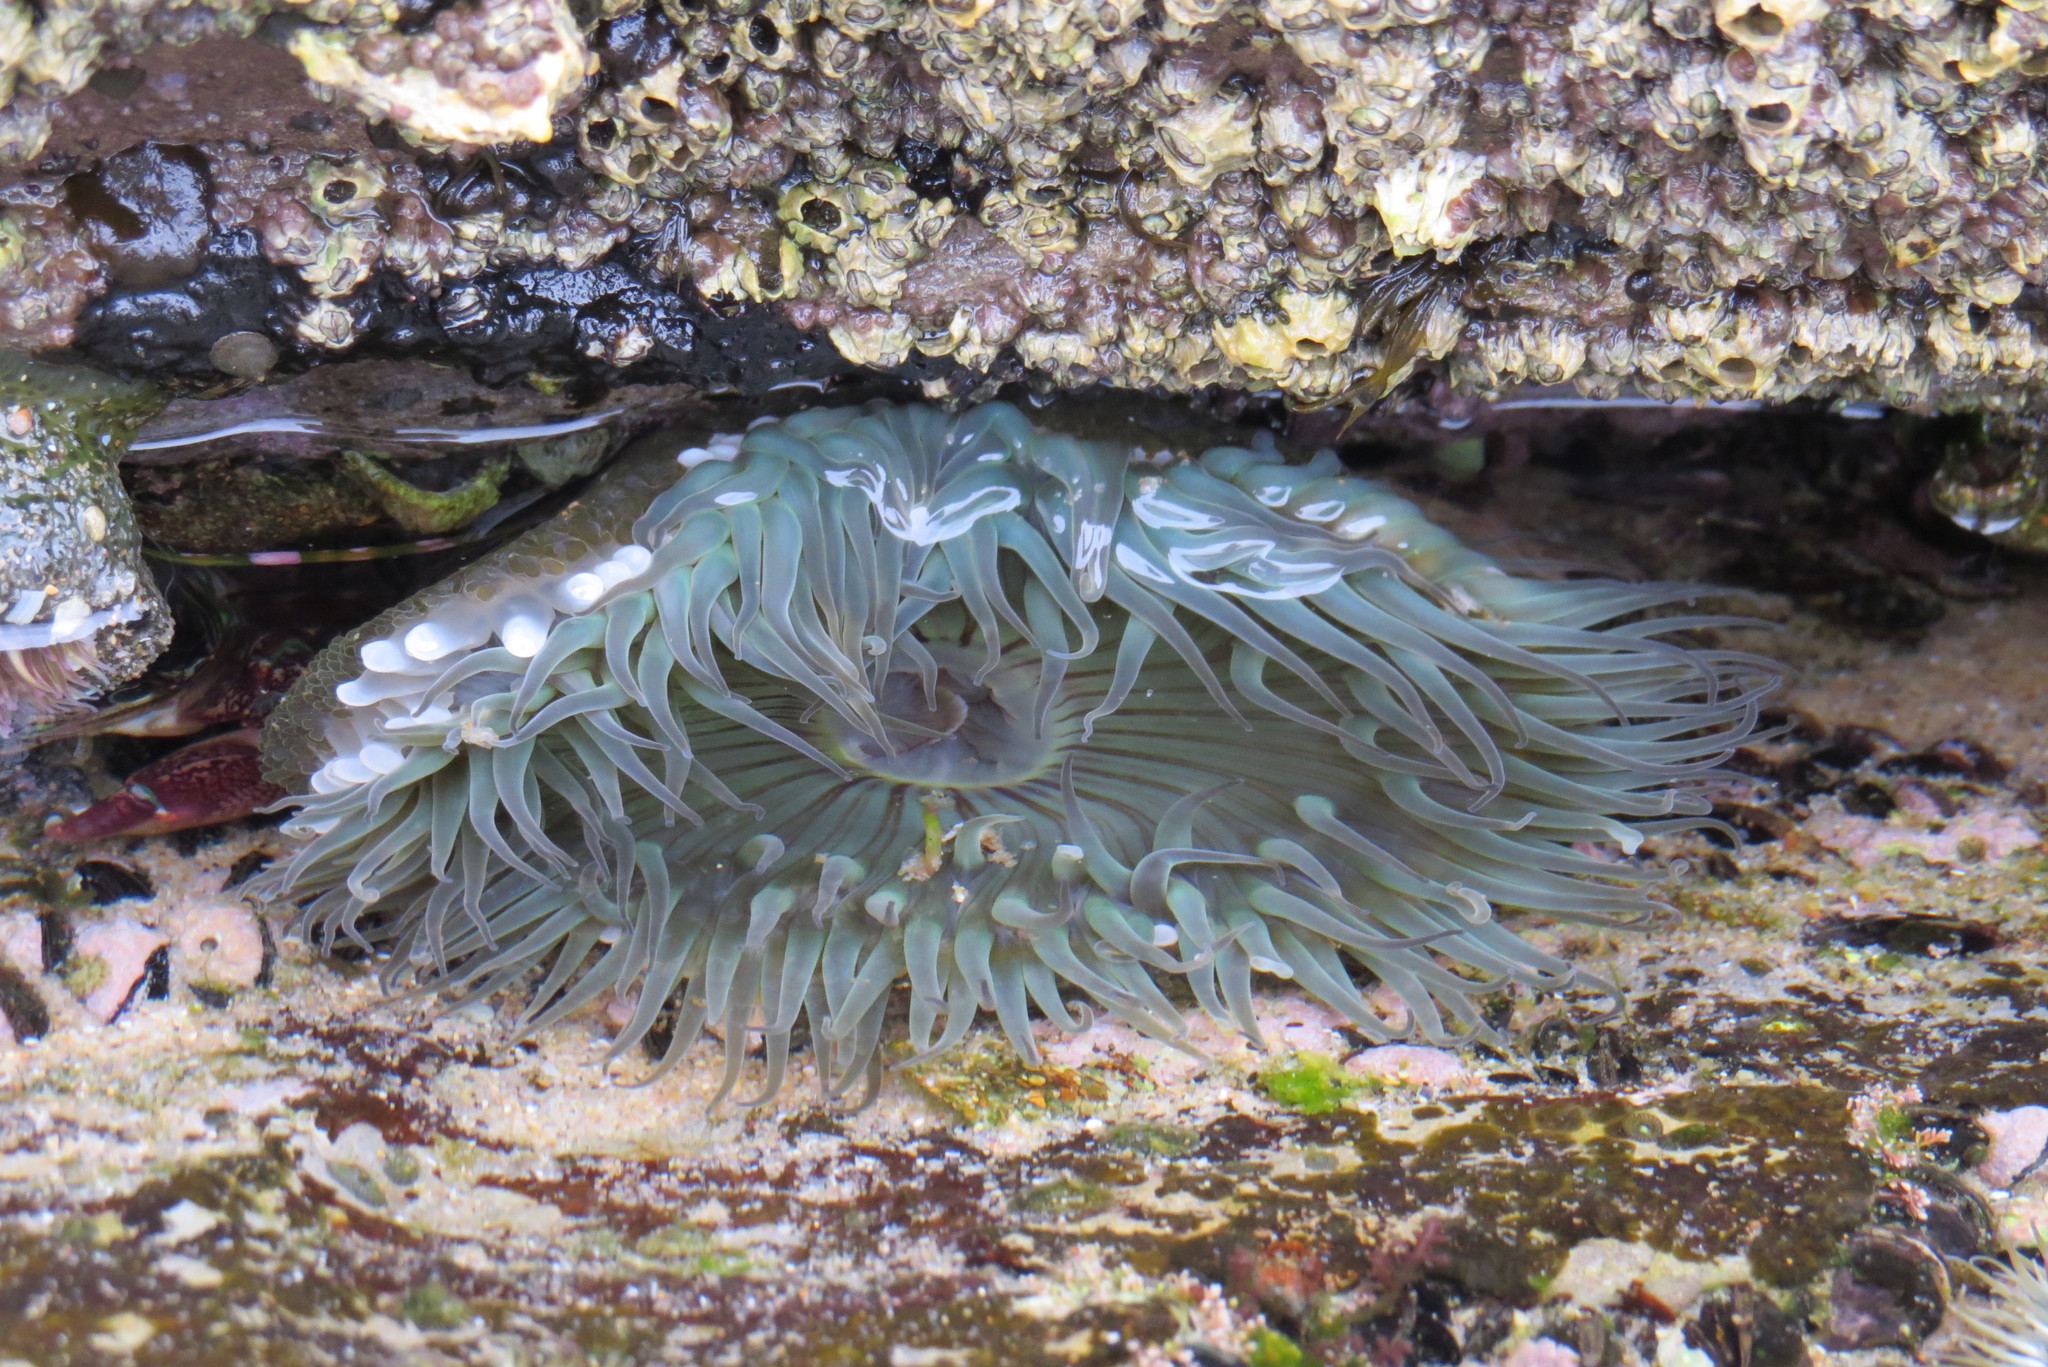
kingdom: Animalia
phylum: Cnidaria
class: Anthozoa
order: Actiniaria
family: Actiniidae
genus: Anthopleura
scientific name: Anthopleura sola
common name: Sun anemone
